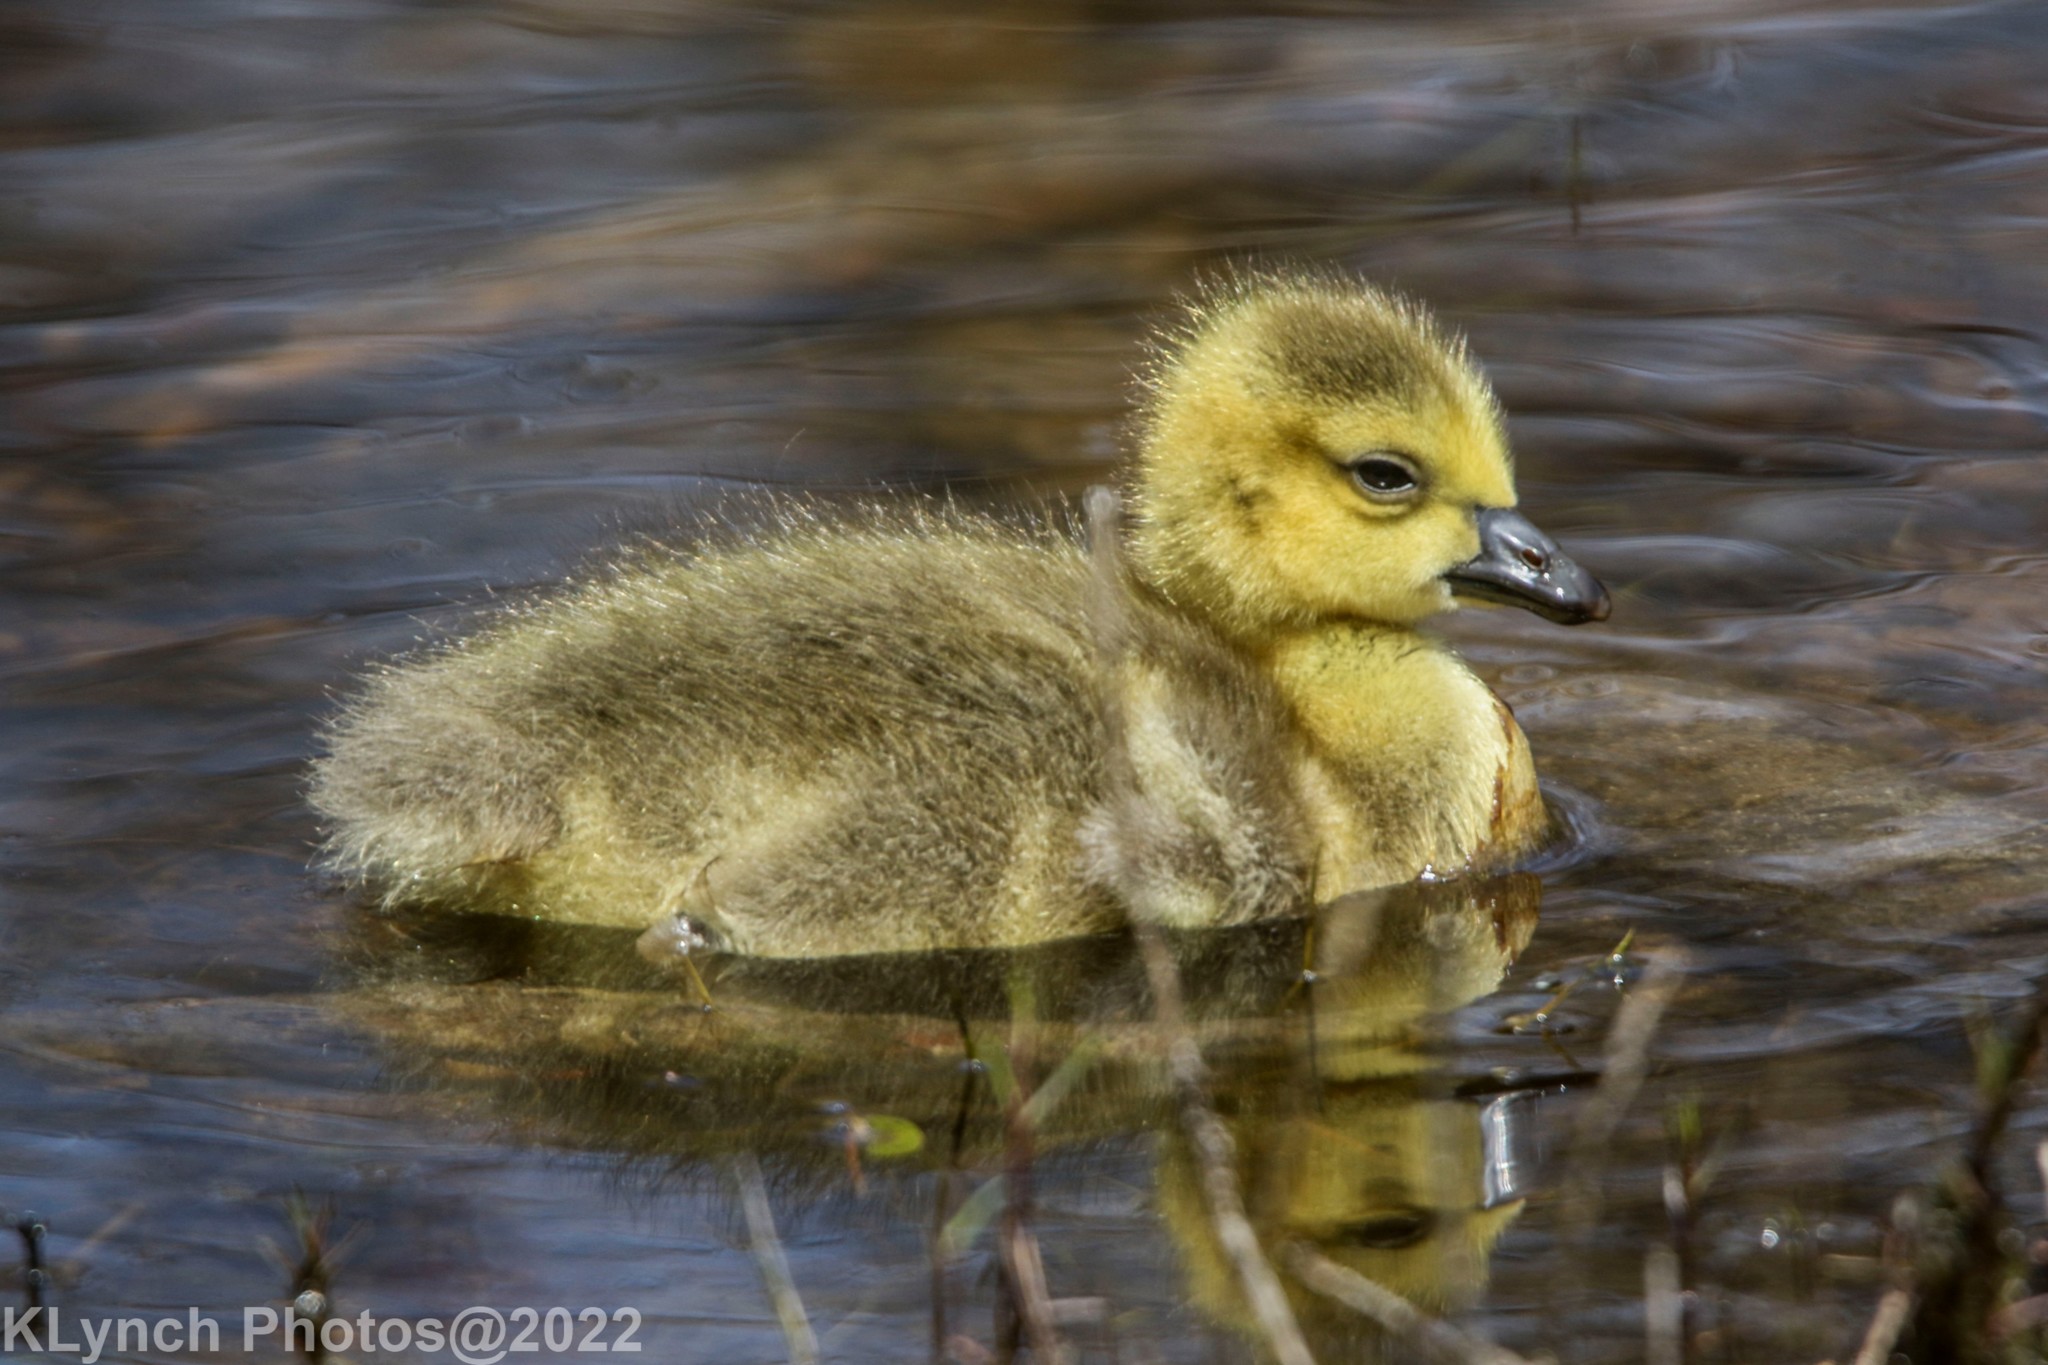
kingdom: Animalia
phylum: Chordata
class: Aves
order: Anseriformes
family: Anatidae
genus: Branta
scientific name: Branta canadensis
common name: Canada goose
